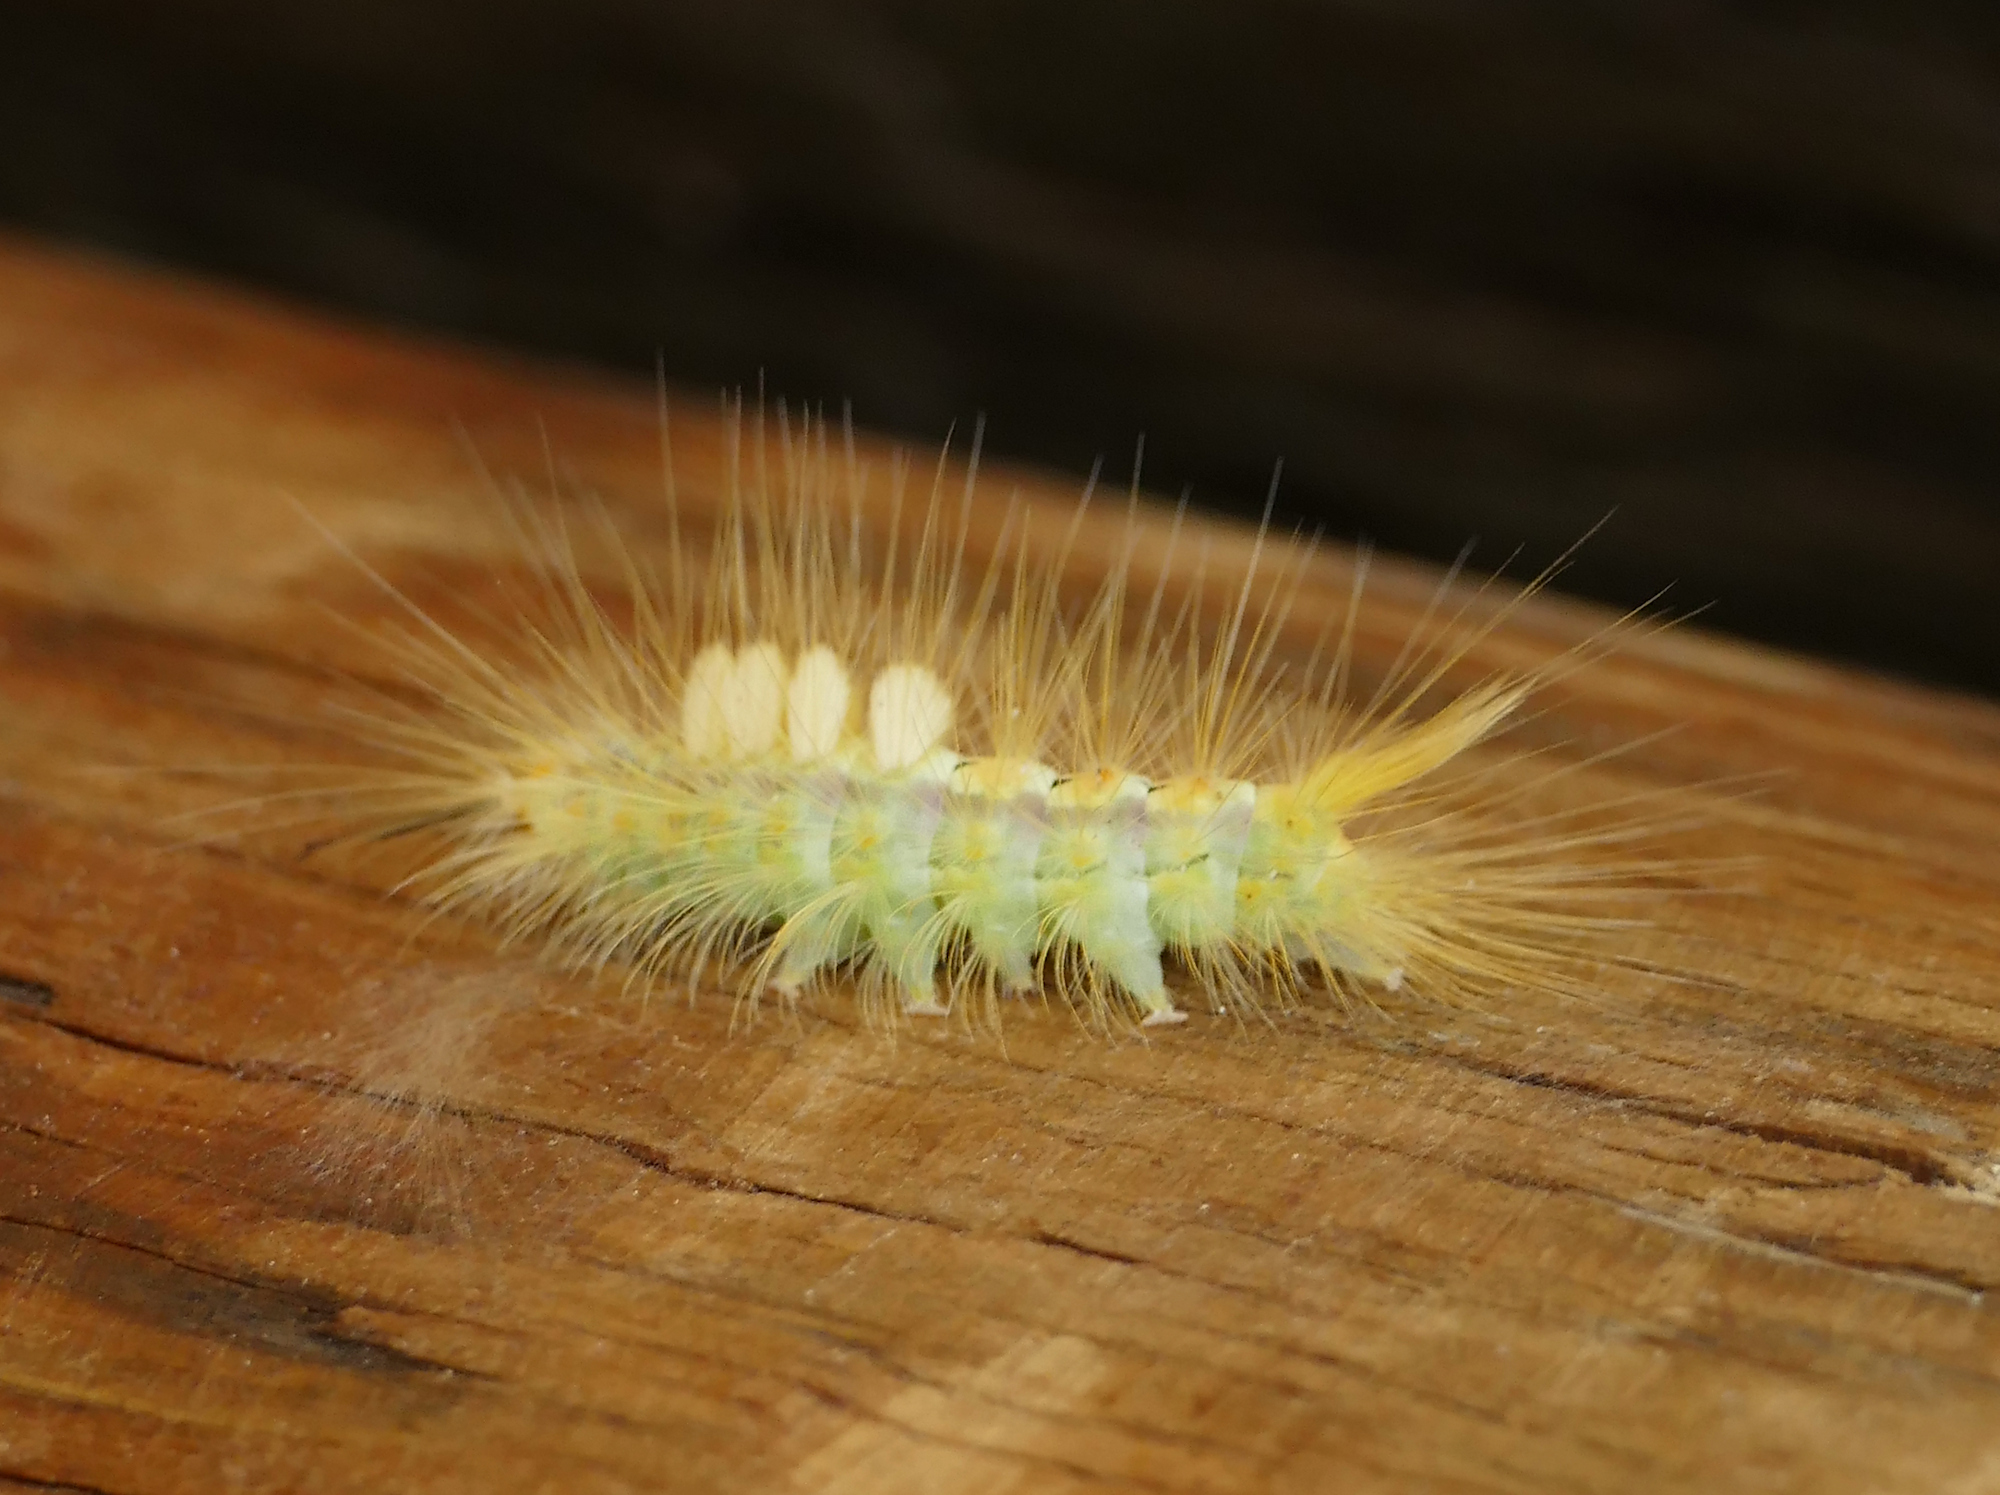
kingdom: Animalia
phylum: Arthropoda
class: Insecta
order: Lepidoptera
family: Erebidae
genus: Orgyia
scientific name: Orgyia leuschneri
